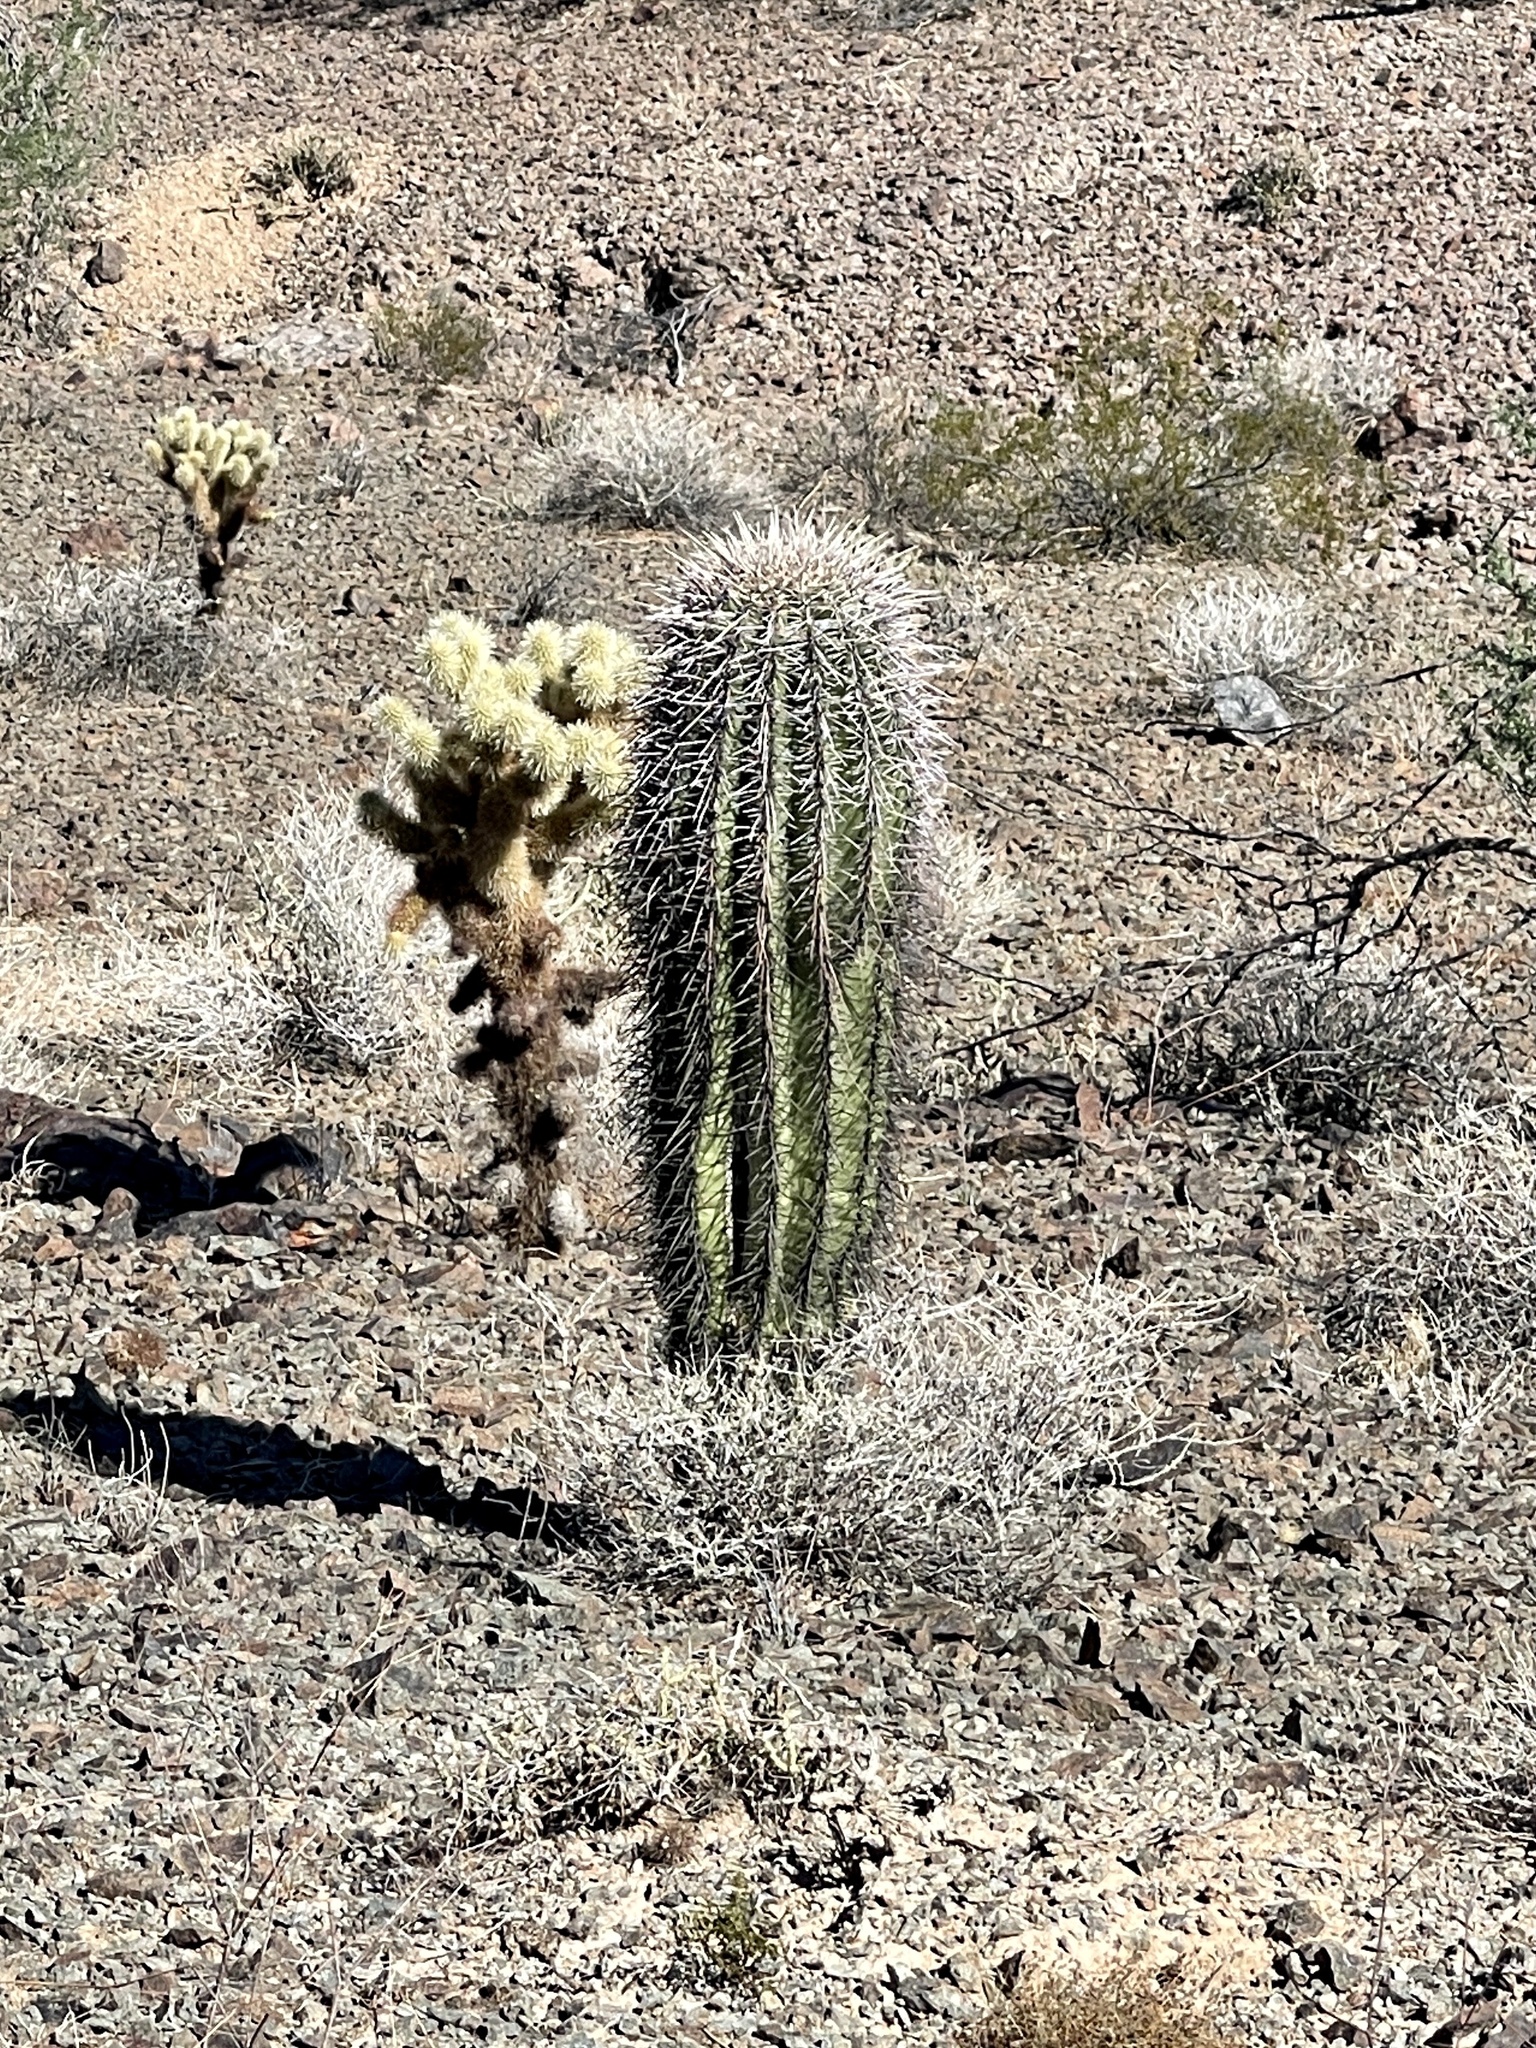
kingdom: Plantae
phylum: Tracheophyta
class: Magnoliopsida
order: Caryophyllales
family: Cactaceae
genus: Carnegiea
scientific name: Carnegiea gigantea
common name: Saguaro
